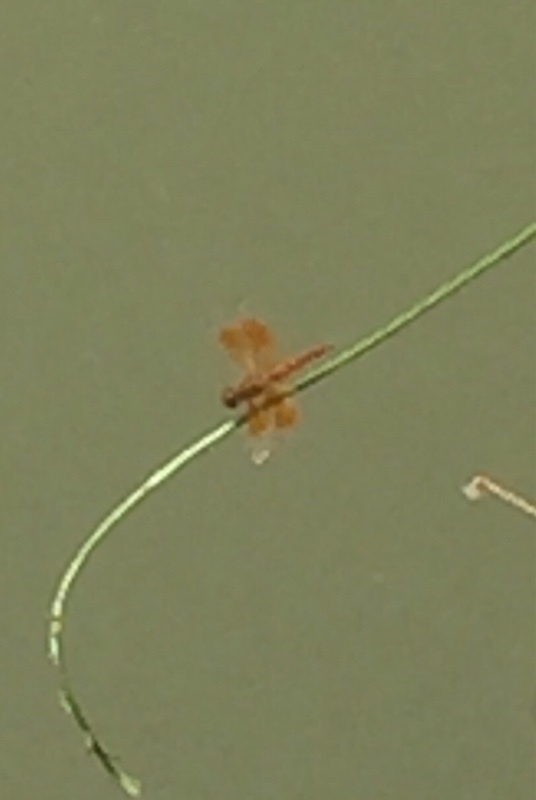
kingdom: Animalia
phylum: Arthropoda
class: Insecta
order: Odonata
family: Libellulidae
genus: Brachythemis
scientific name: Brachythemis contaminata
